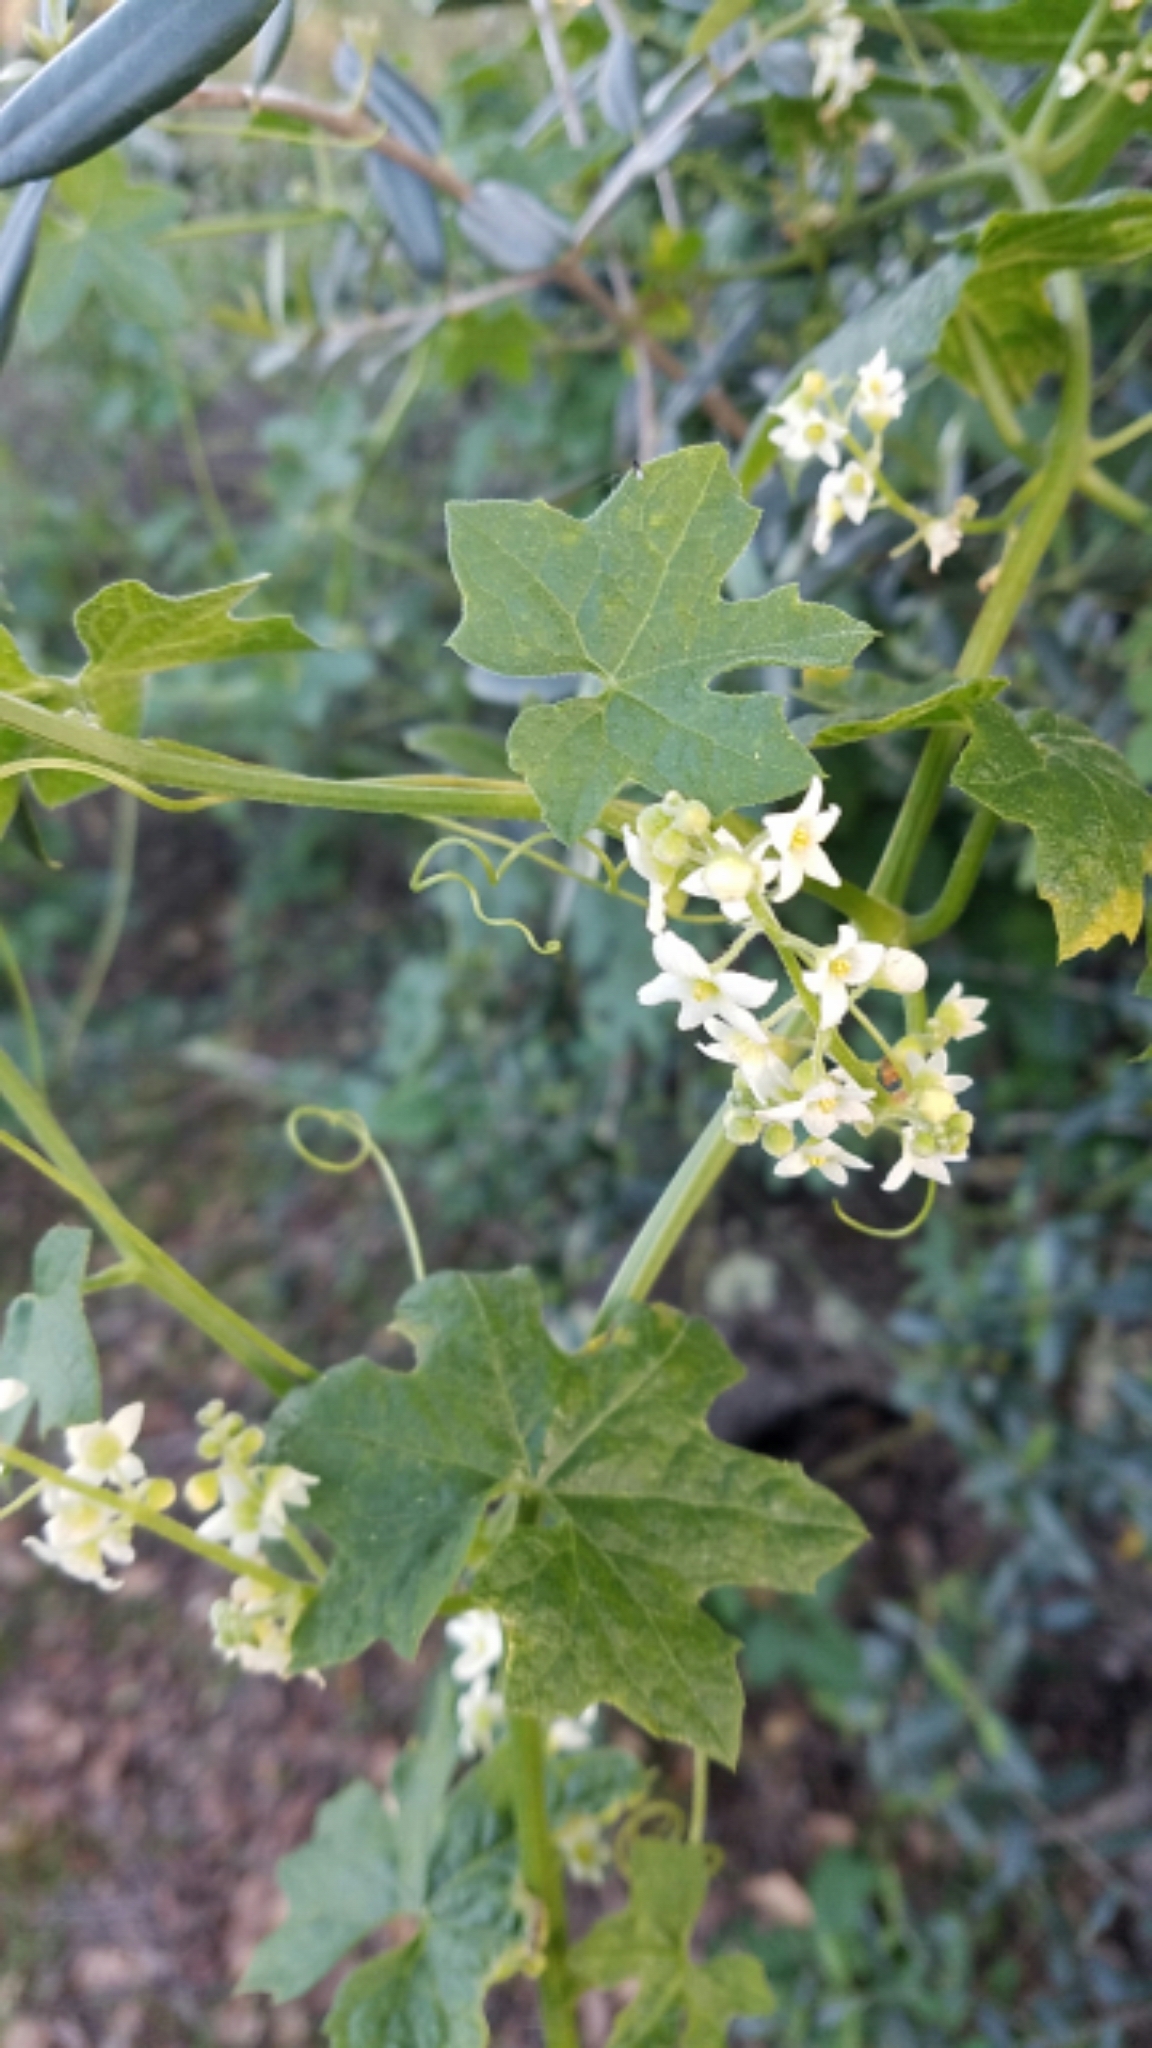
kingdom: Plantae
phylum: Tracheophyta
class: Magnoliopsida
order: Cucurbitales
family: Cucurbitaceae
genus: Marah
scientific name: Marah macrocarpa
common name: Cucamonga manroot
